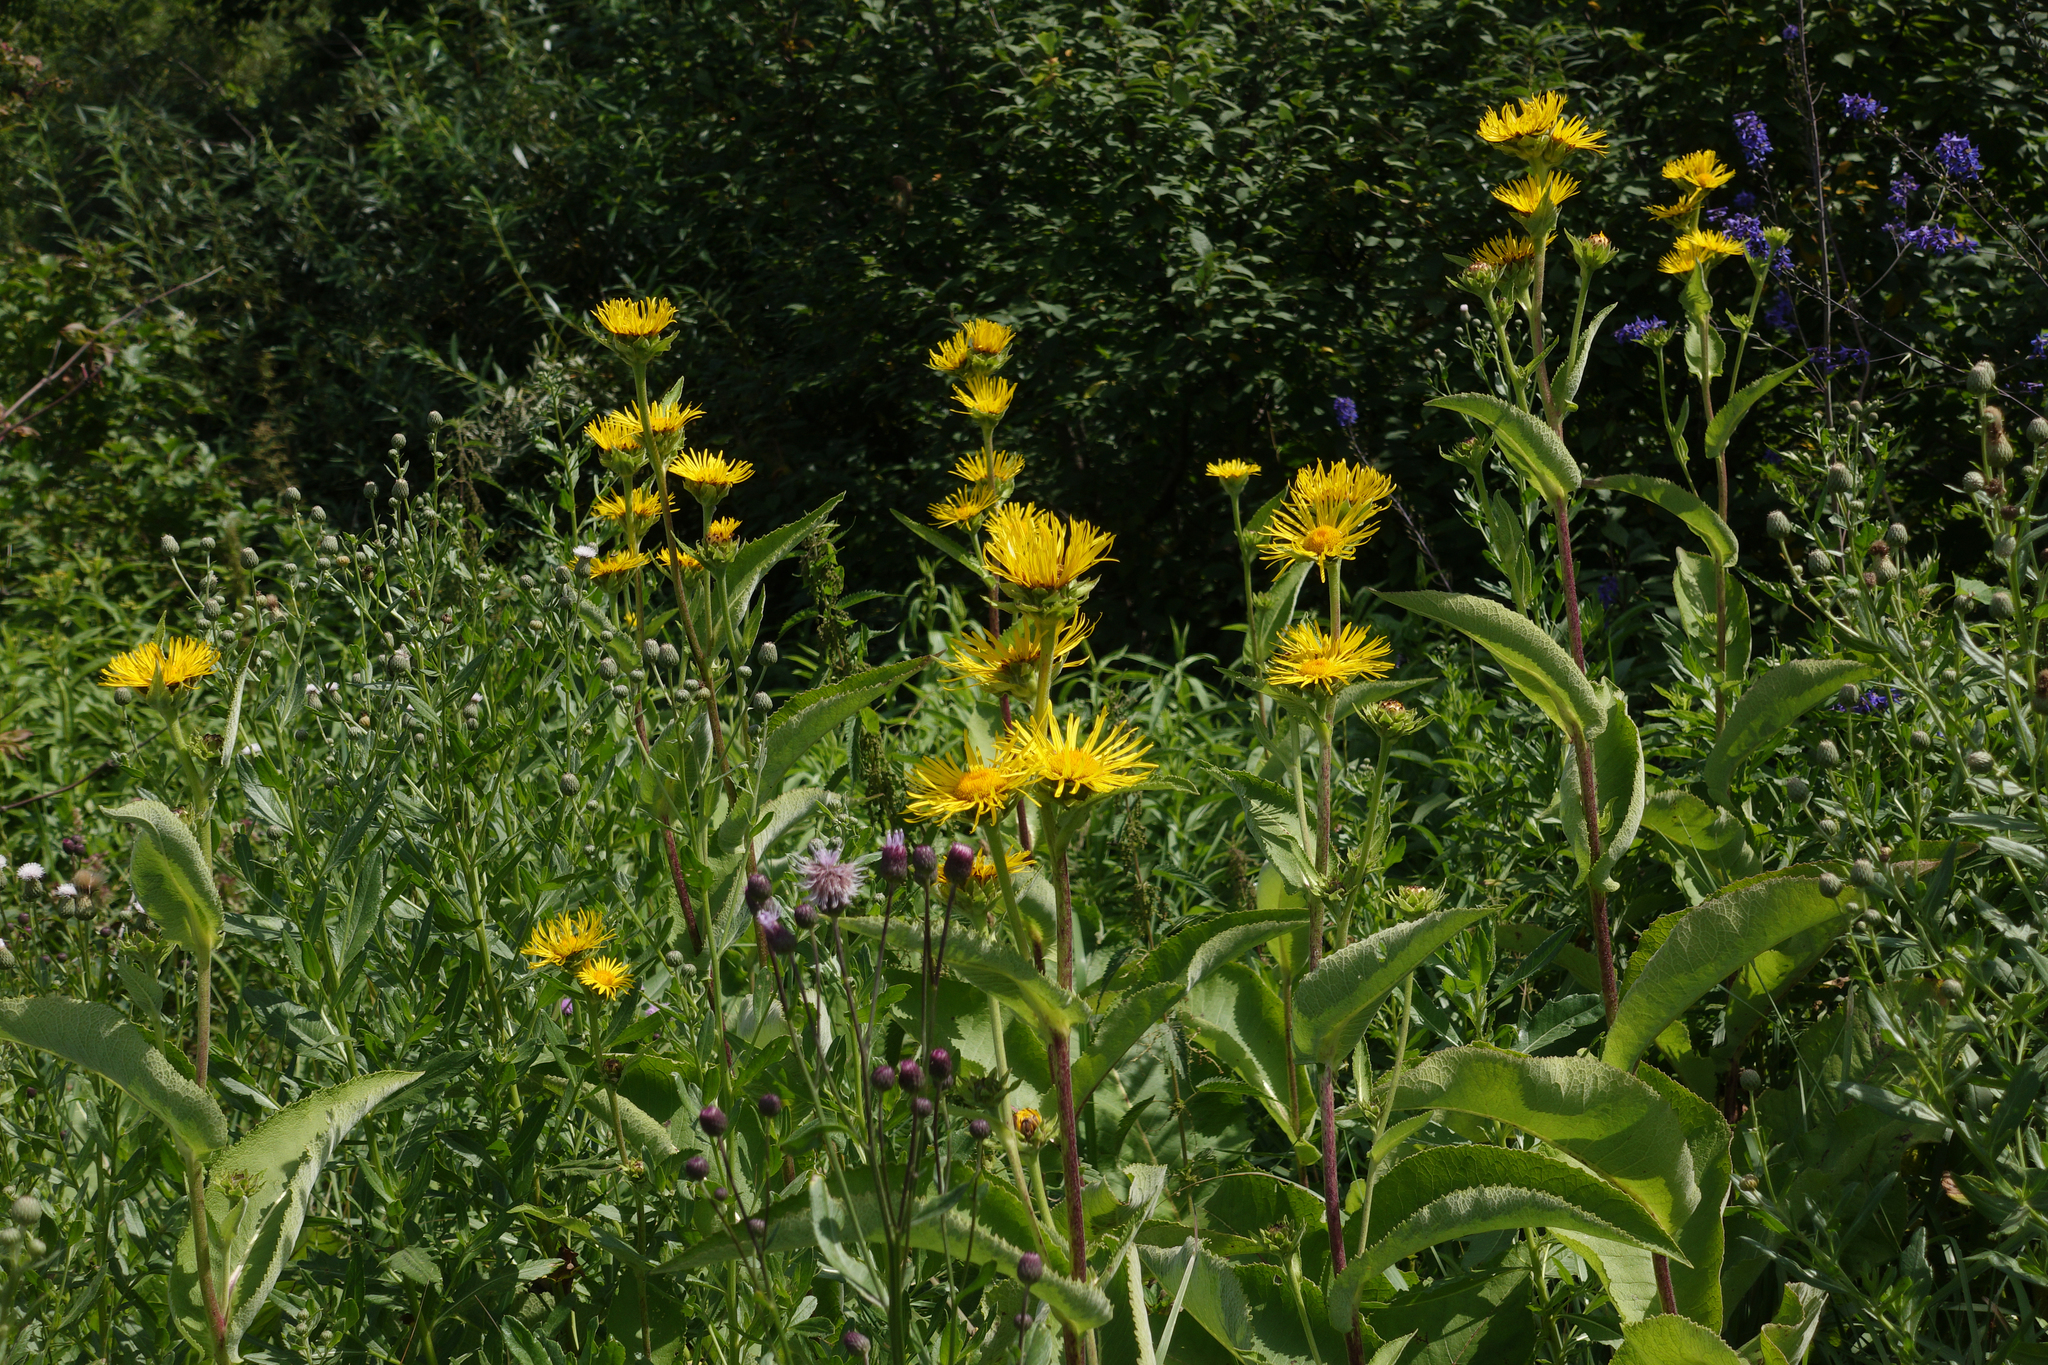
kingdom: Plantae
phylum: Tracheophyta
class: Magnoliopsida
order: Asterales
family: Asteraceae
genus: Inula
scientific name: Inula helenium
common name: Elecampane
